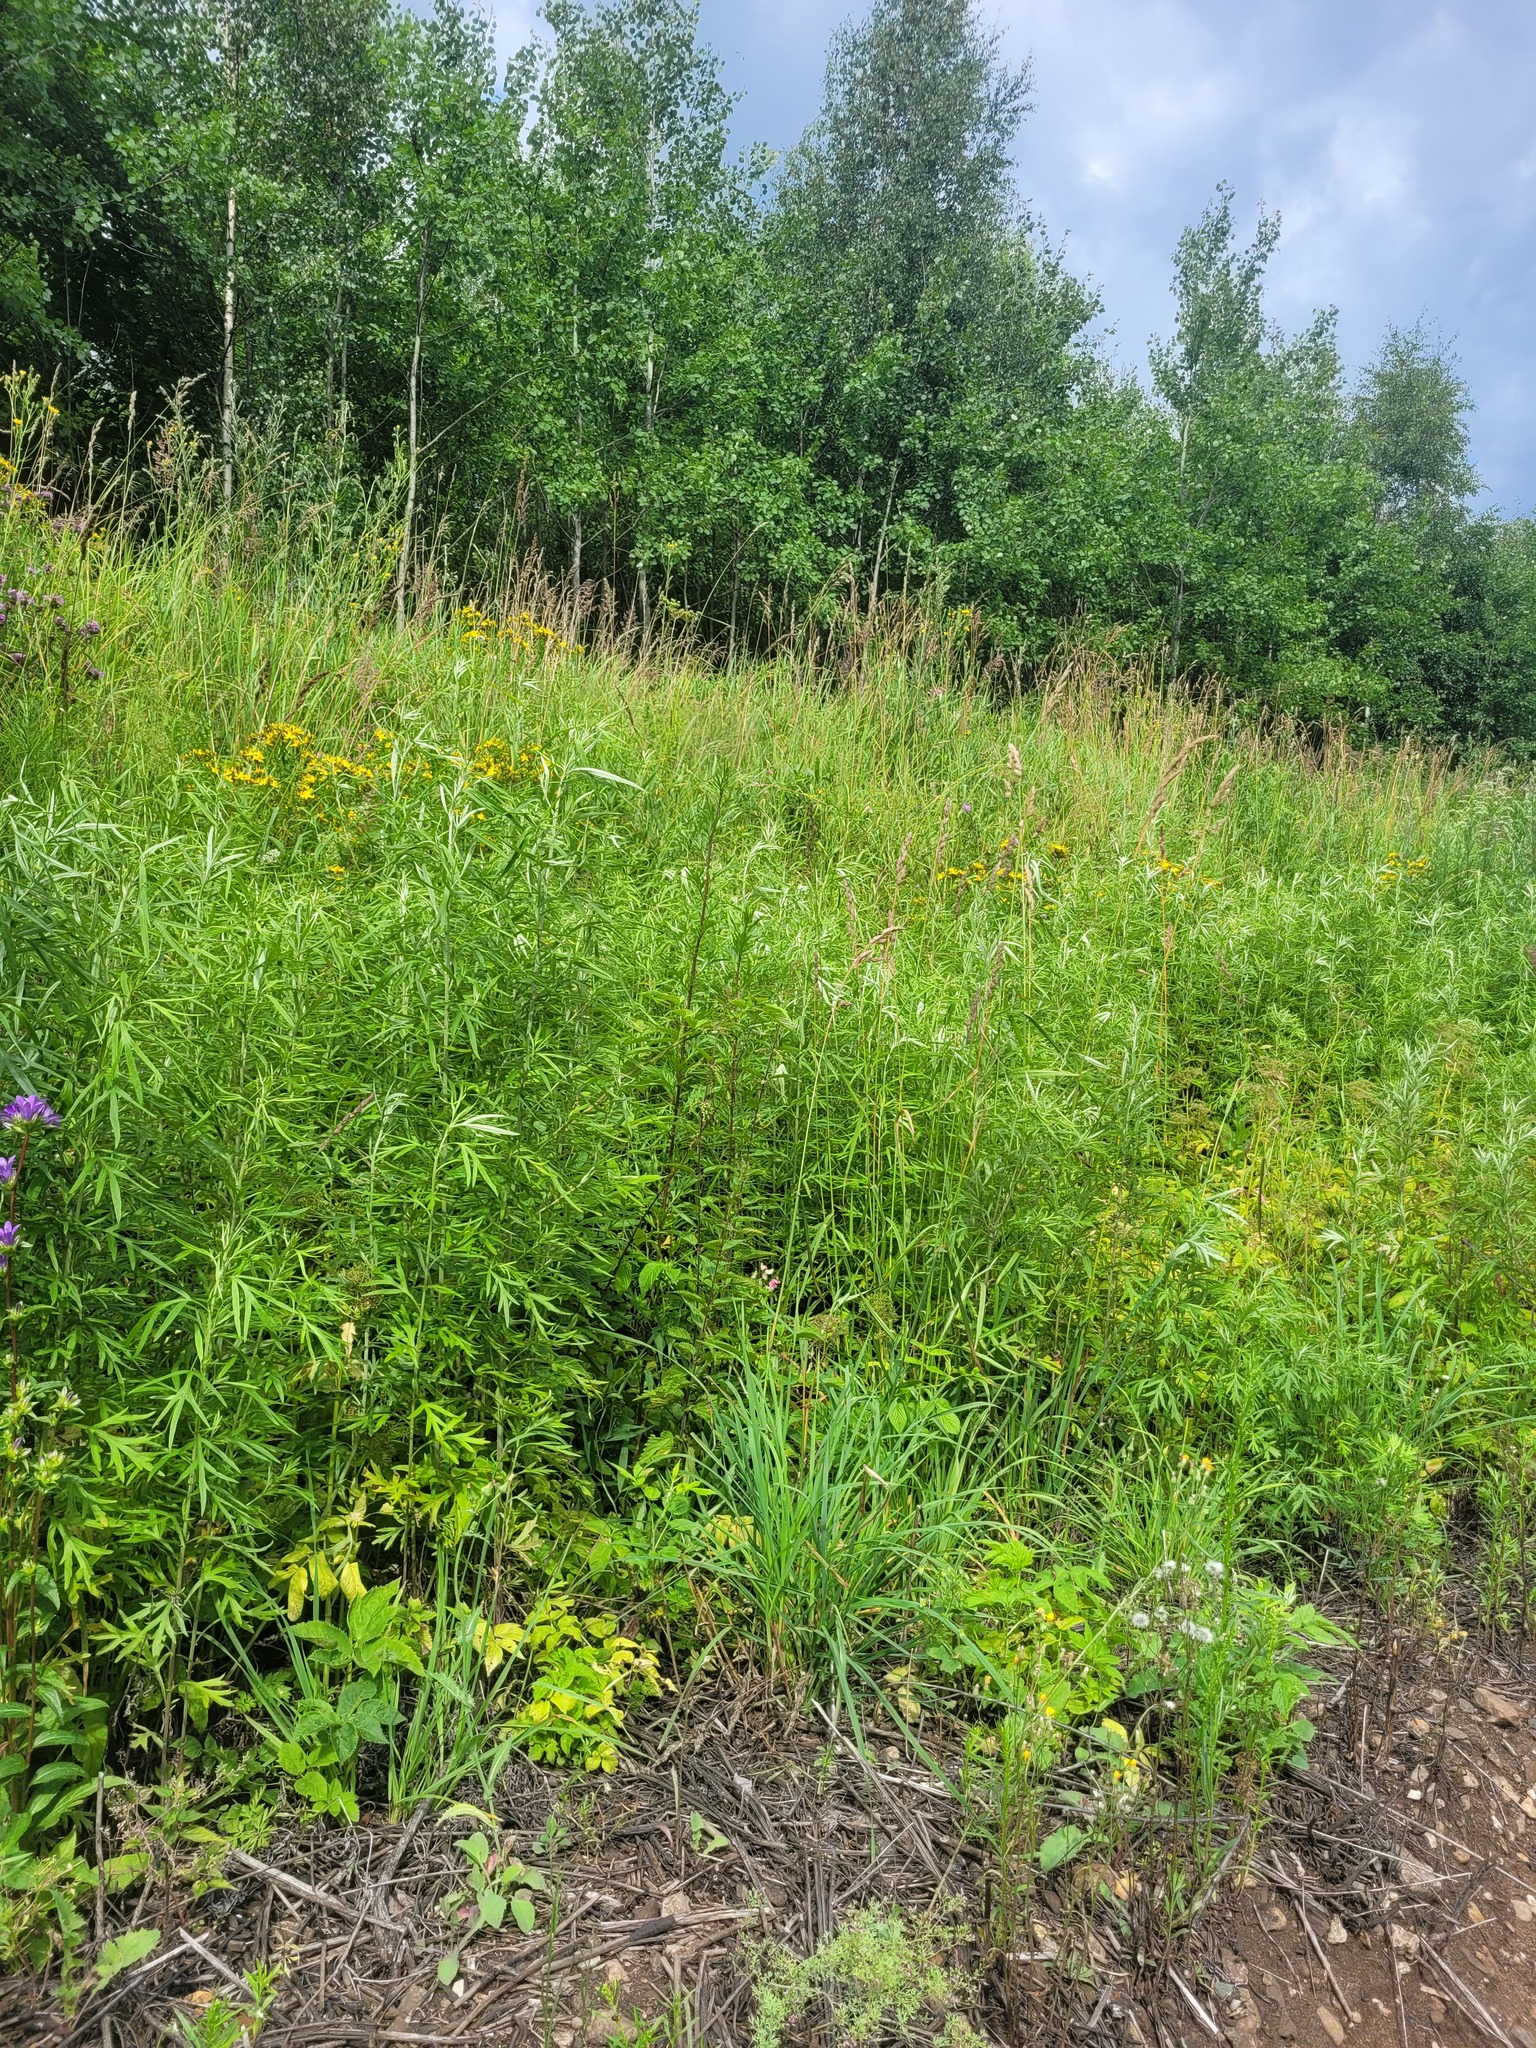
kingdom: Plantae
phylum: Tracheophyta
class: Magnoliopsida
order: Asterales
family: Asteraceae
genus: Artemisia
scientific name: Artemisia umbrosa
